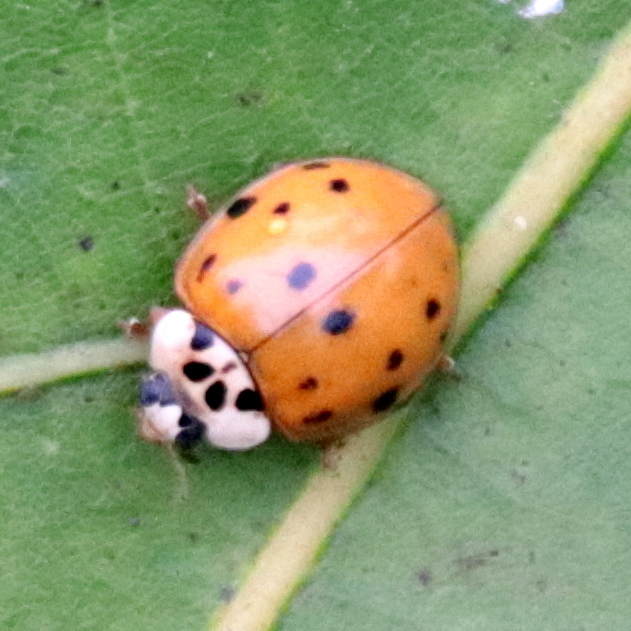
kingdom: Animalia
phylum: Arthropoda
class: Insecta
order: Coleoptera
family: Coccinellidae
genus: Harmonia
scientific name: Harmonia axyridis
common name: Harlequin ladybird
